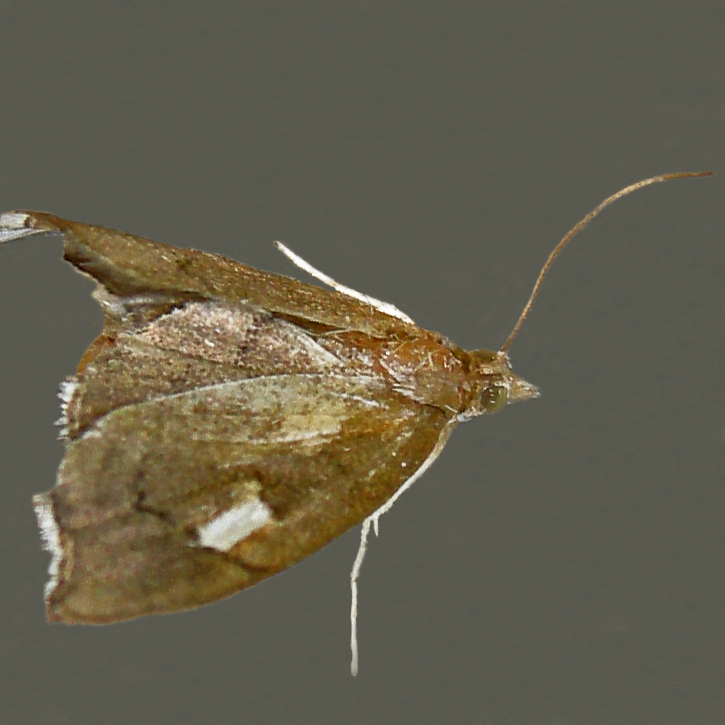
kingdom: Animalia
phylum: Arthropoda
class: Insecta
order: Lepidoptera
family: Crambidae
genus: Perispasta
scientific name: Perispasta caeculalis
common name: Titian peale's moth
